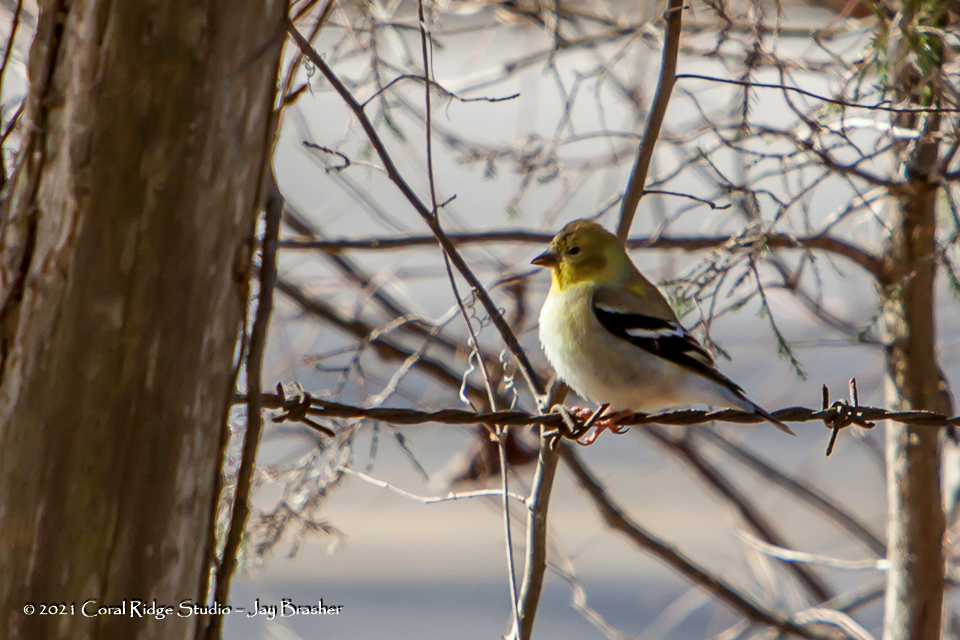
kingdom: Animalia
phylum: Chordata
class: Aves
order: Passeriformes
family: Fringillidae
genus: Spinus
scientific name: Spinus tristis
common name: American goldfinch
